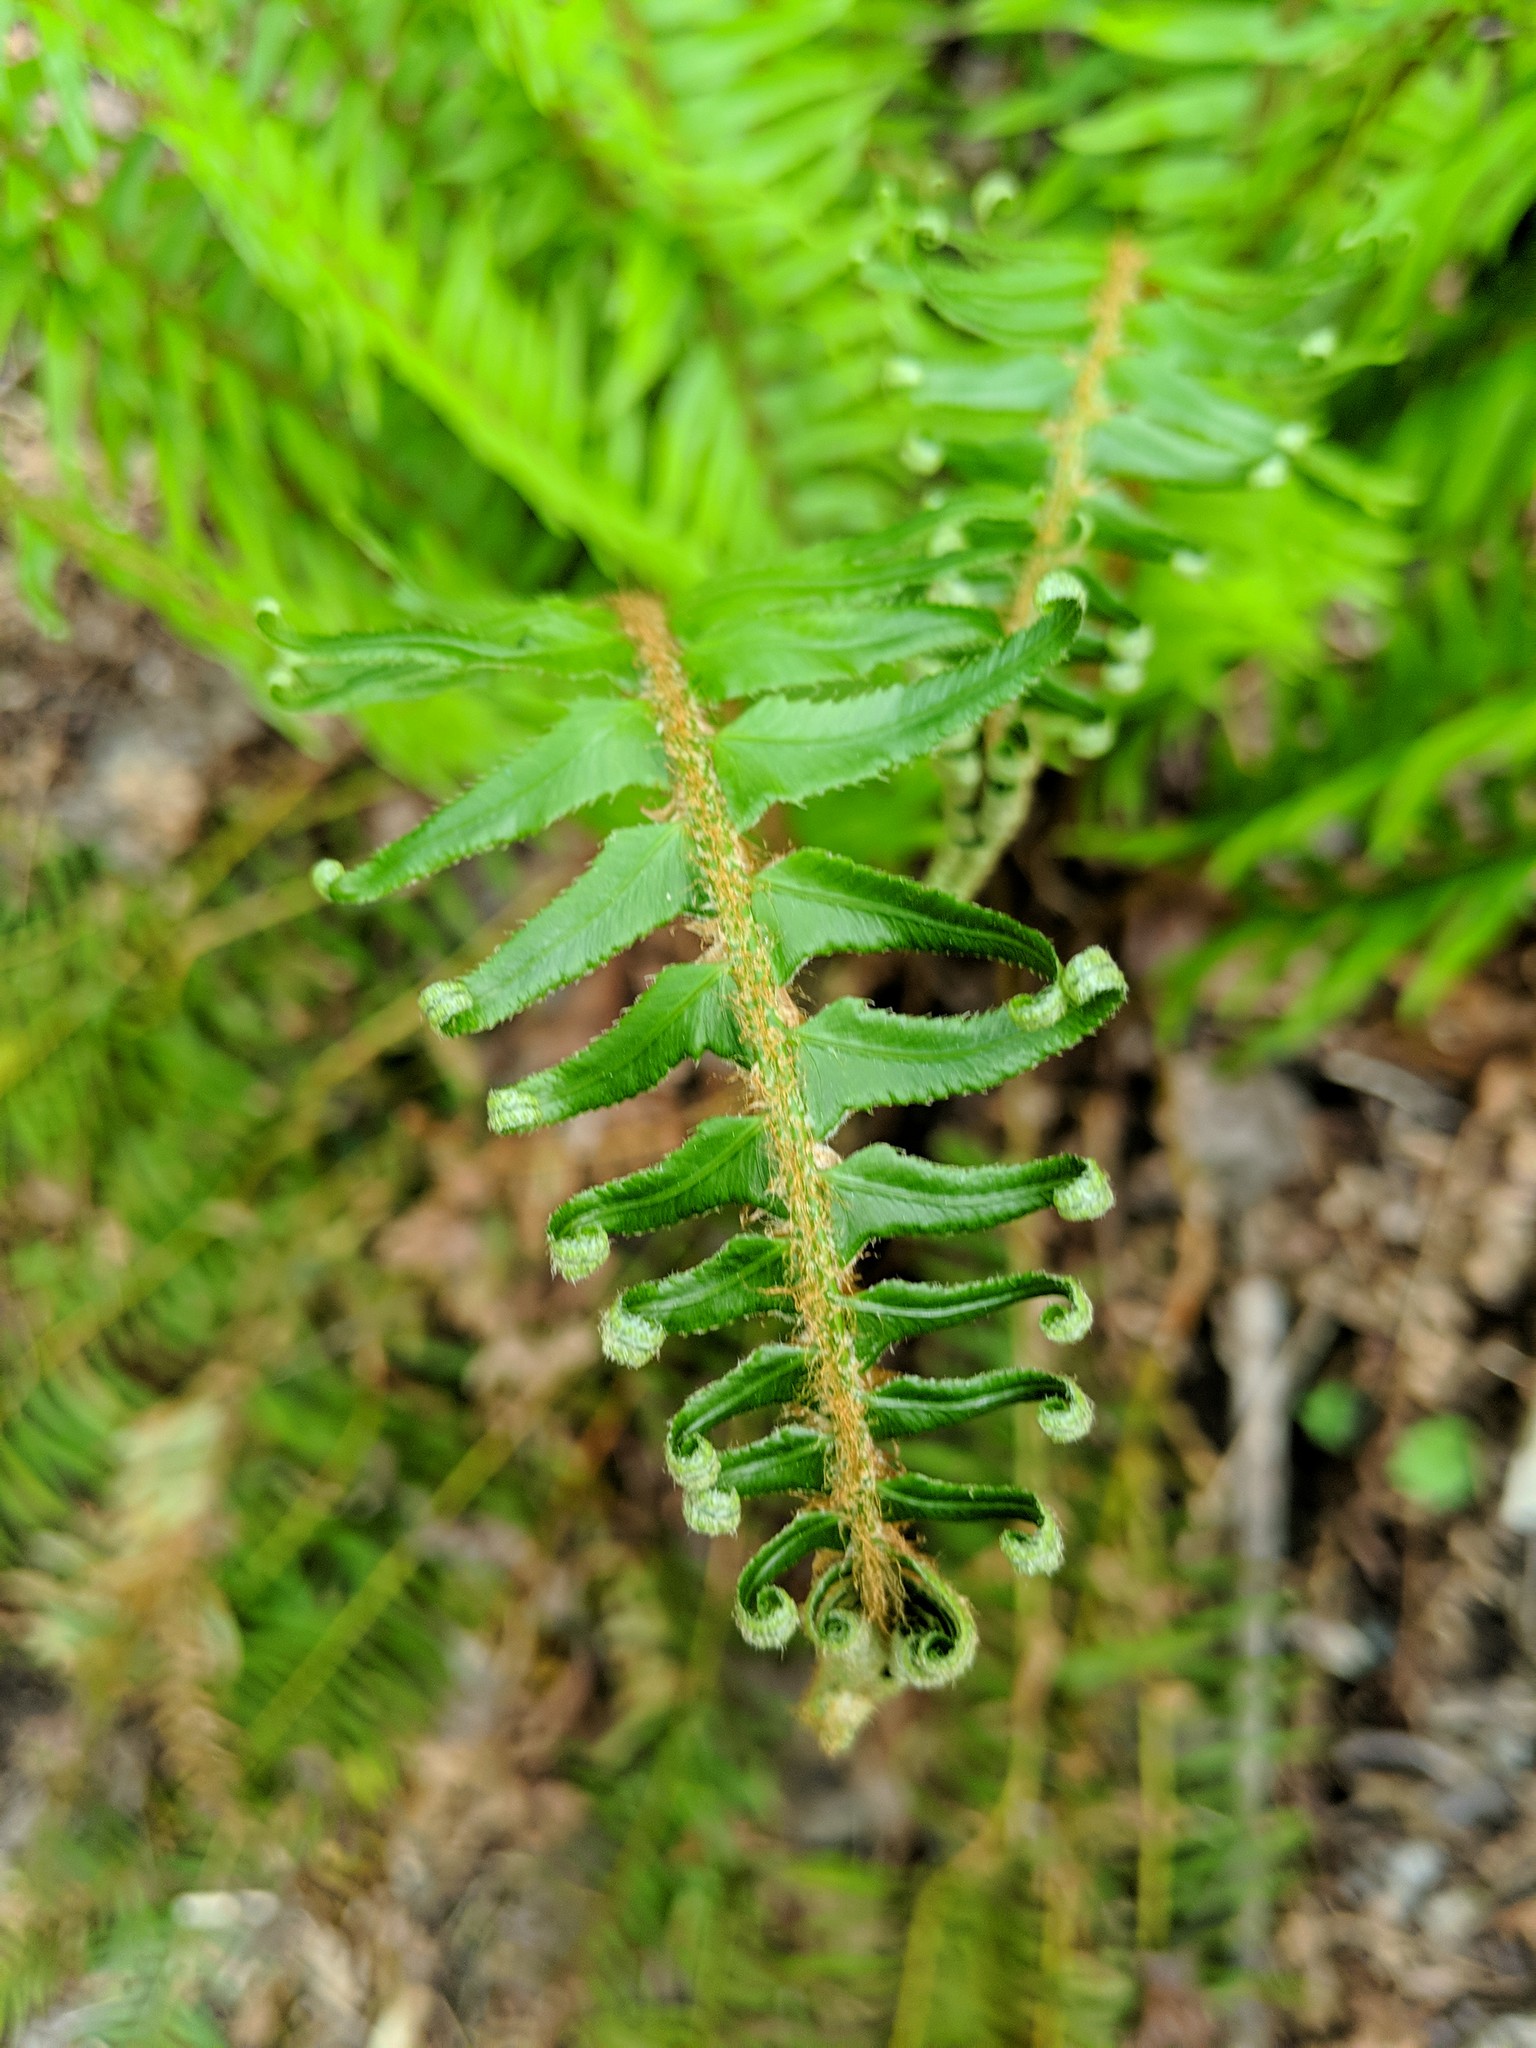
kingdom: Plantae
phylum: Tracheophyta
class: Polypodiopsida
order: Polypodiales
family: Dryopteridaceae
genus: Polystichum
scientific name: Polystichum munitum
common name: Western sword-fern
